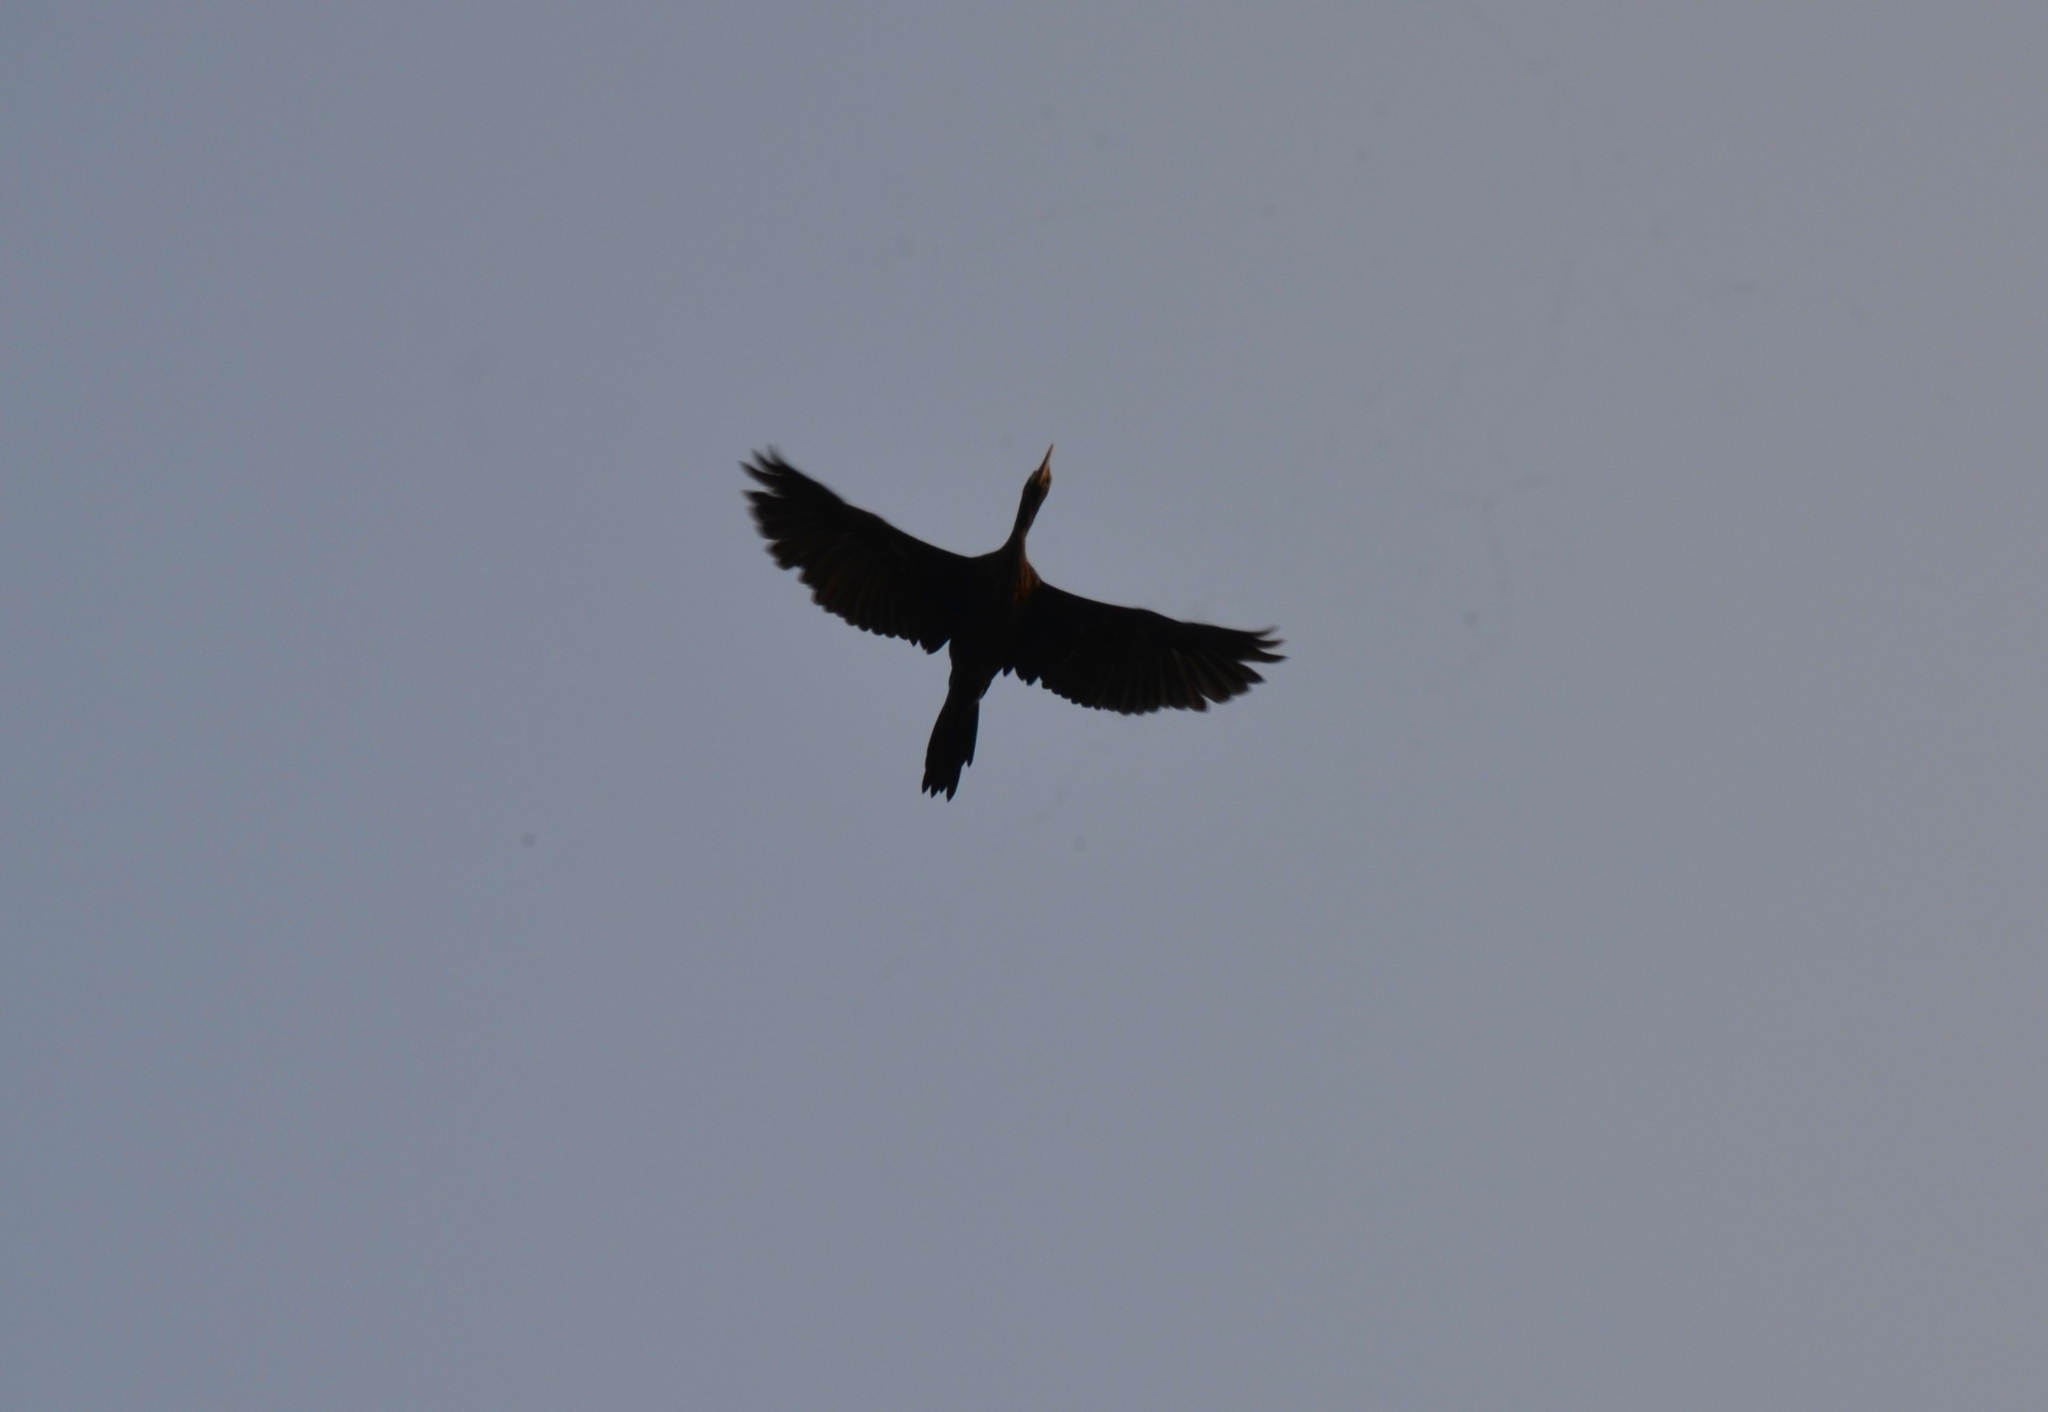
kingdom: Animalia
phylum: Chordata
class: Aves
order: Suliformes
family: Phalacrocoracidae
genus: Phalacrocorax
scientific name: Phalacrocorax fuscicollis
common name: Indian cormorant
